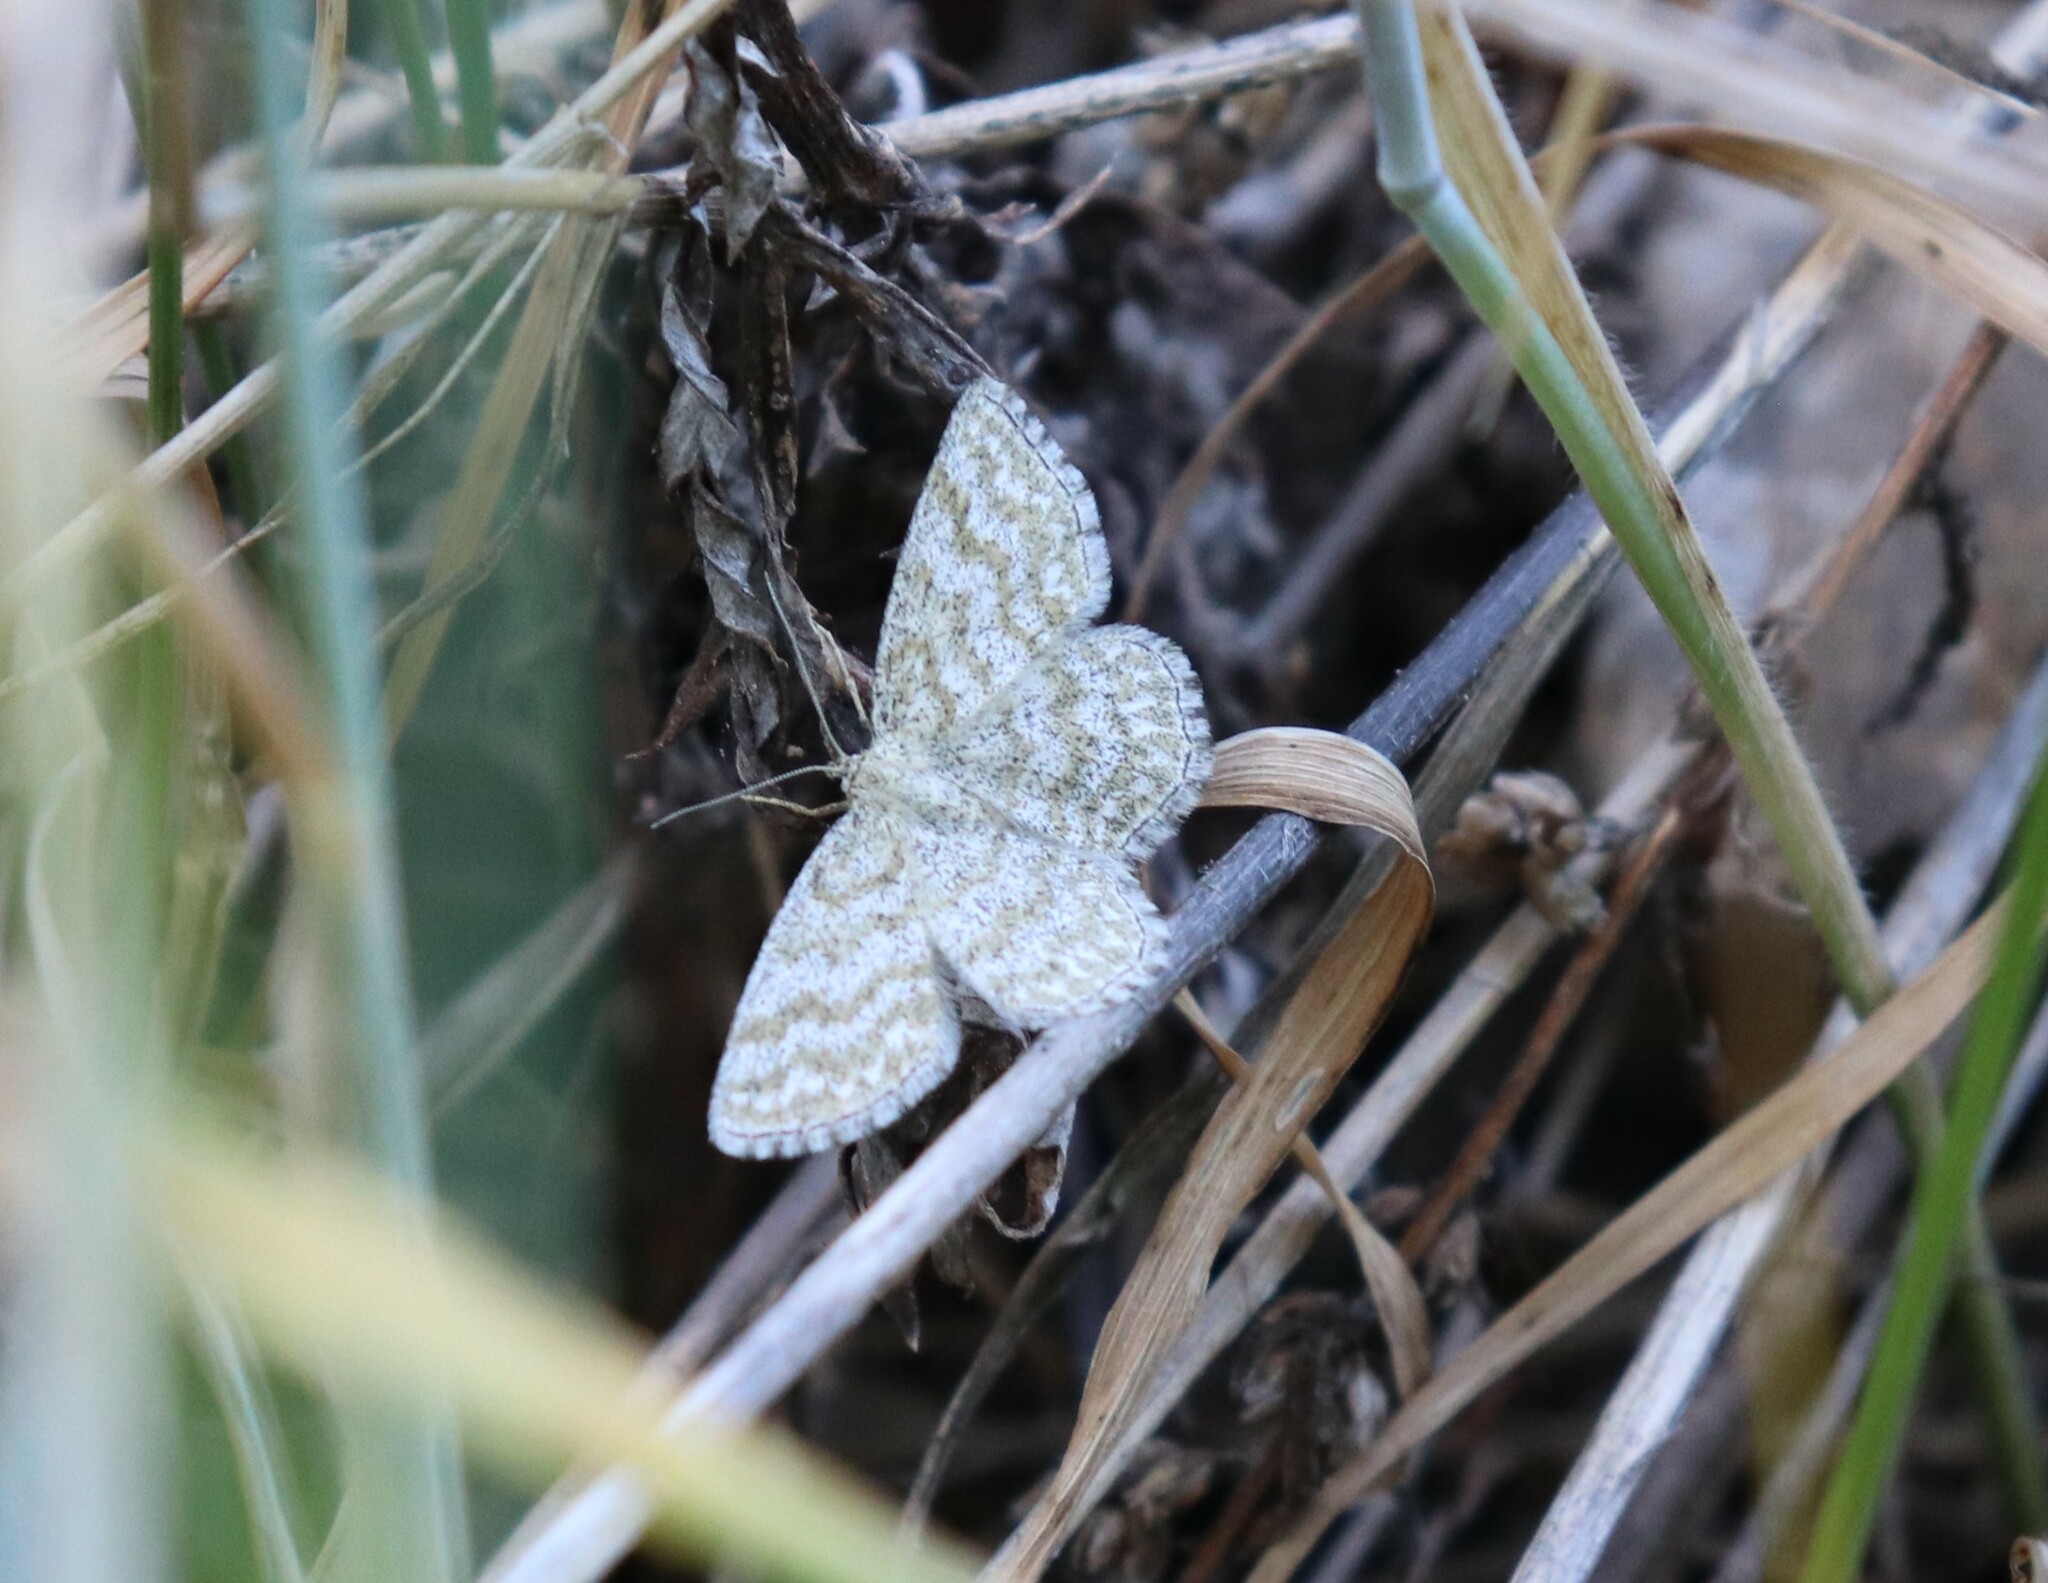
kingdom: Animalia
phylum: Arthropoda
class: Insecta
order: Lepidoptera
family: Geometridae
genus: Scopula
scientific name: Scopula immorata
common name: Lewes wave
